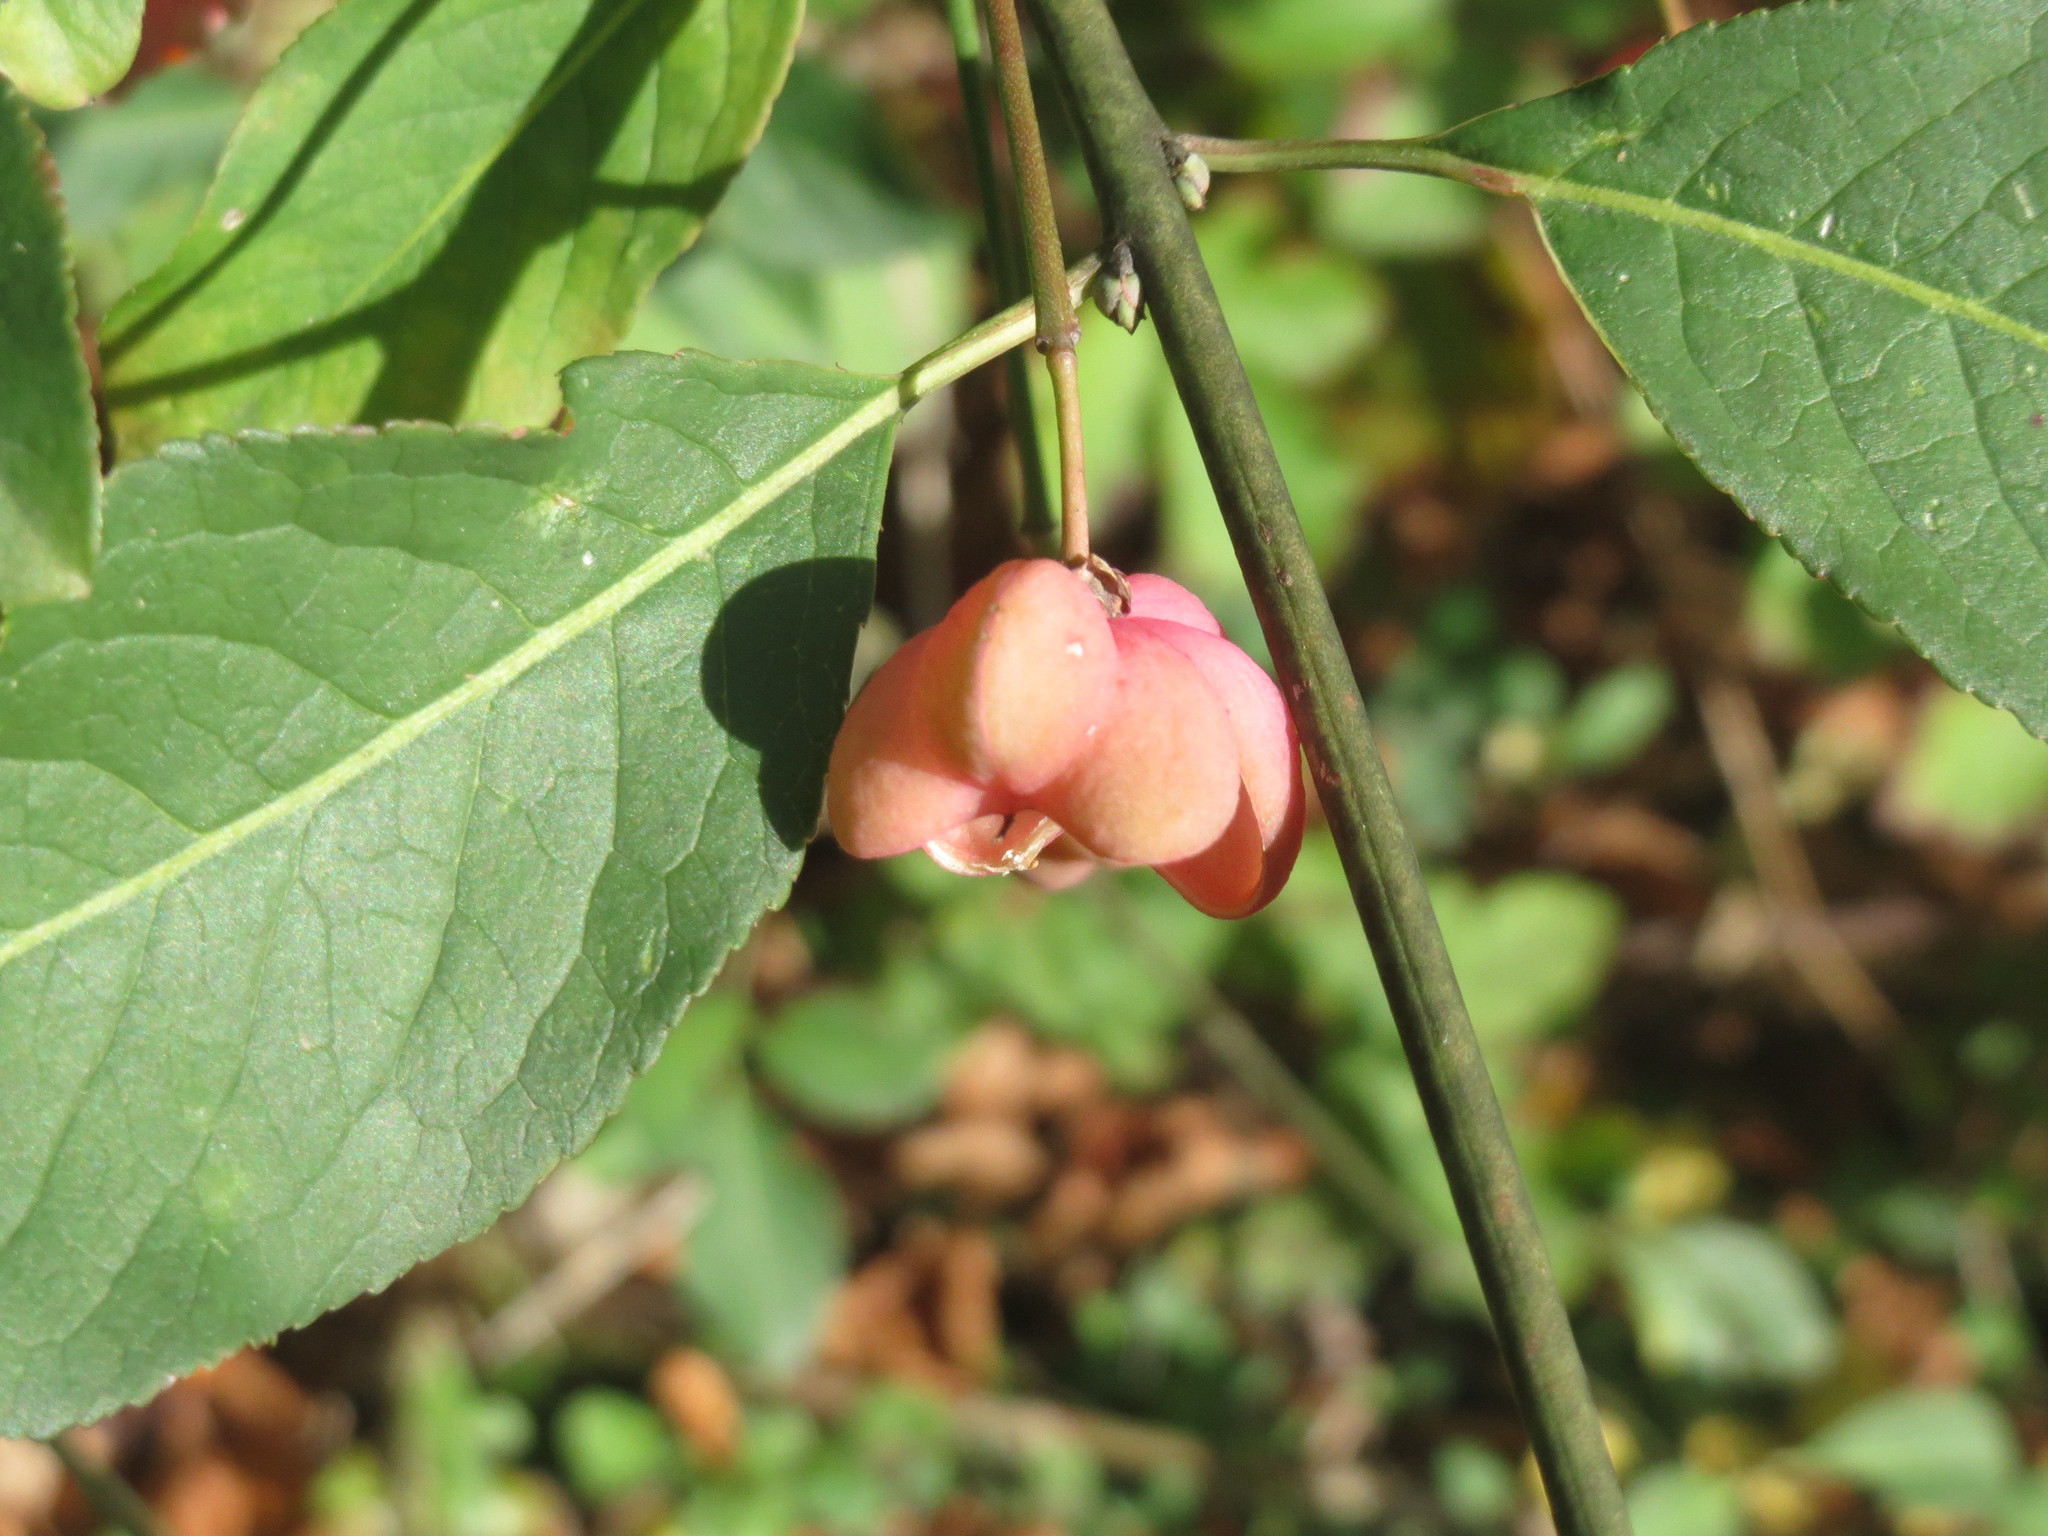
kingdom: Plantae
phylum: Tracheophyta
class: Magnoliopsida
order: Celastrales
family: Celastraceae
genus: Euonymus
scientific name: Euonymus europaeus
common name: Spindle
